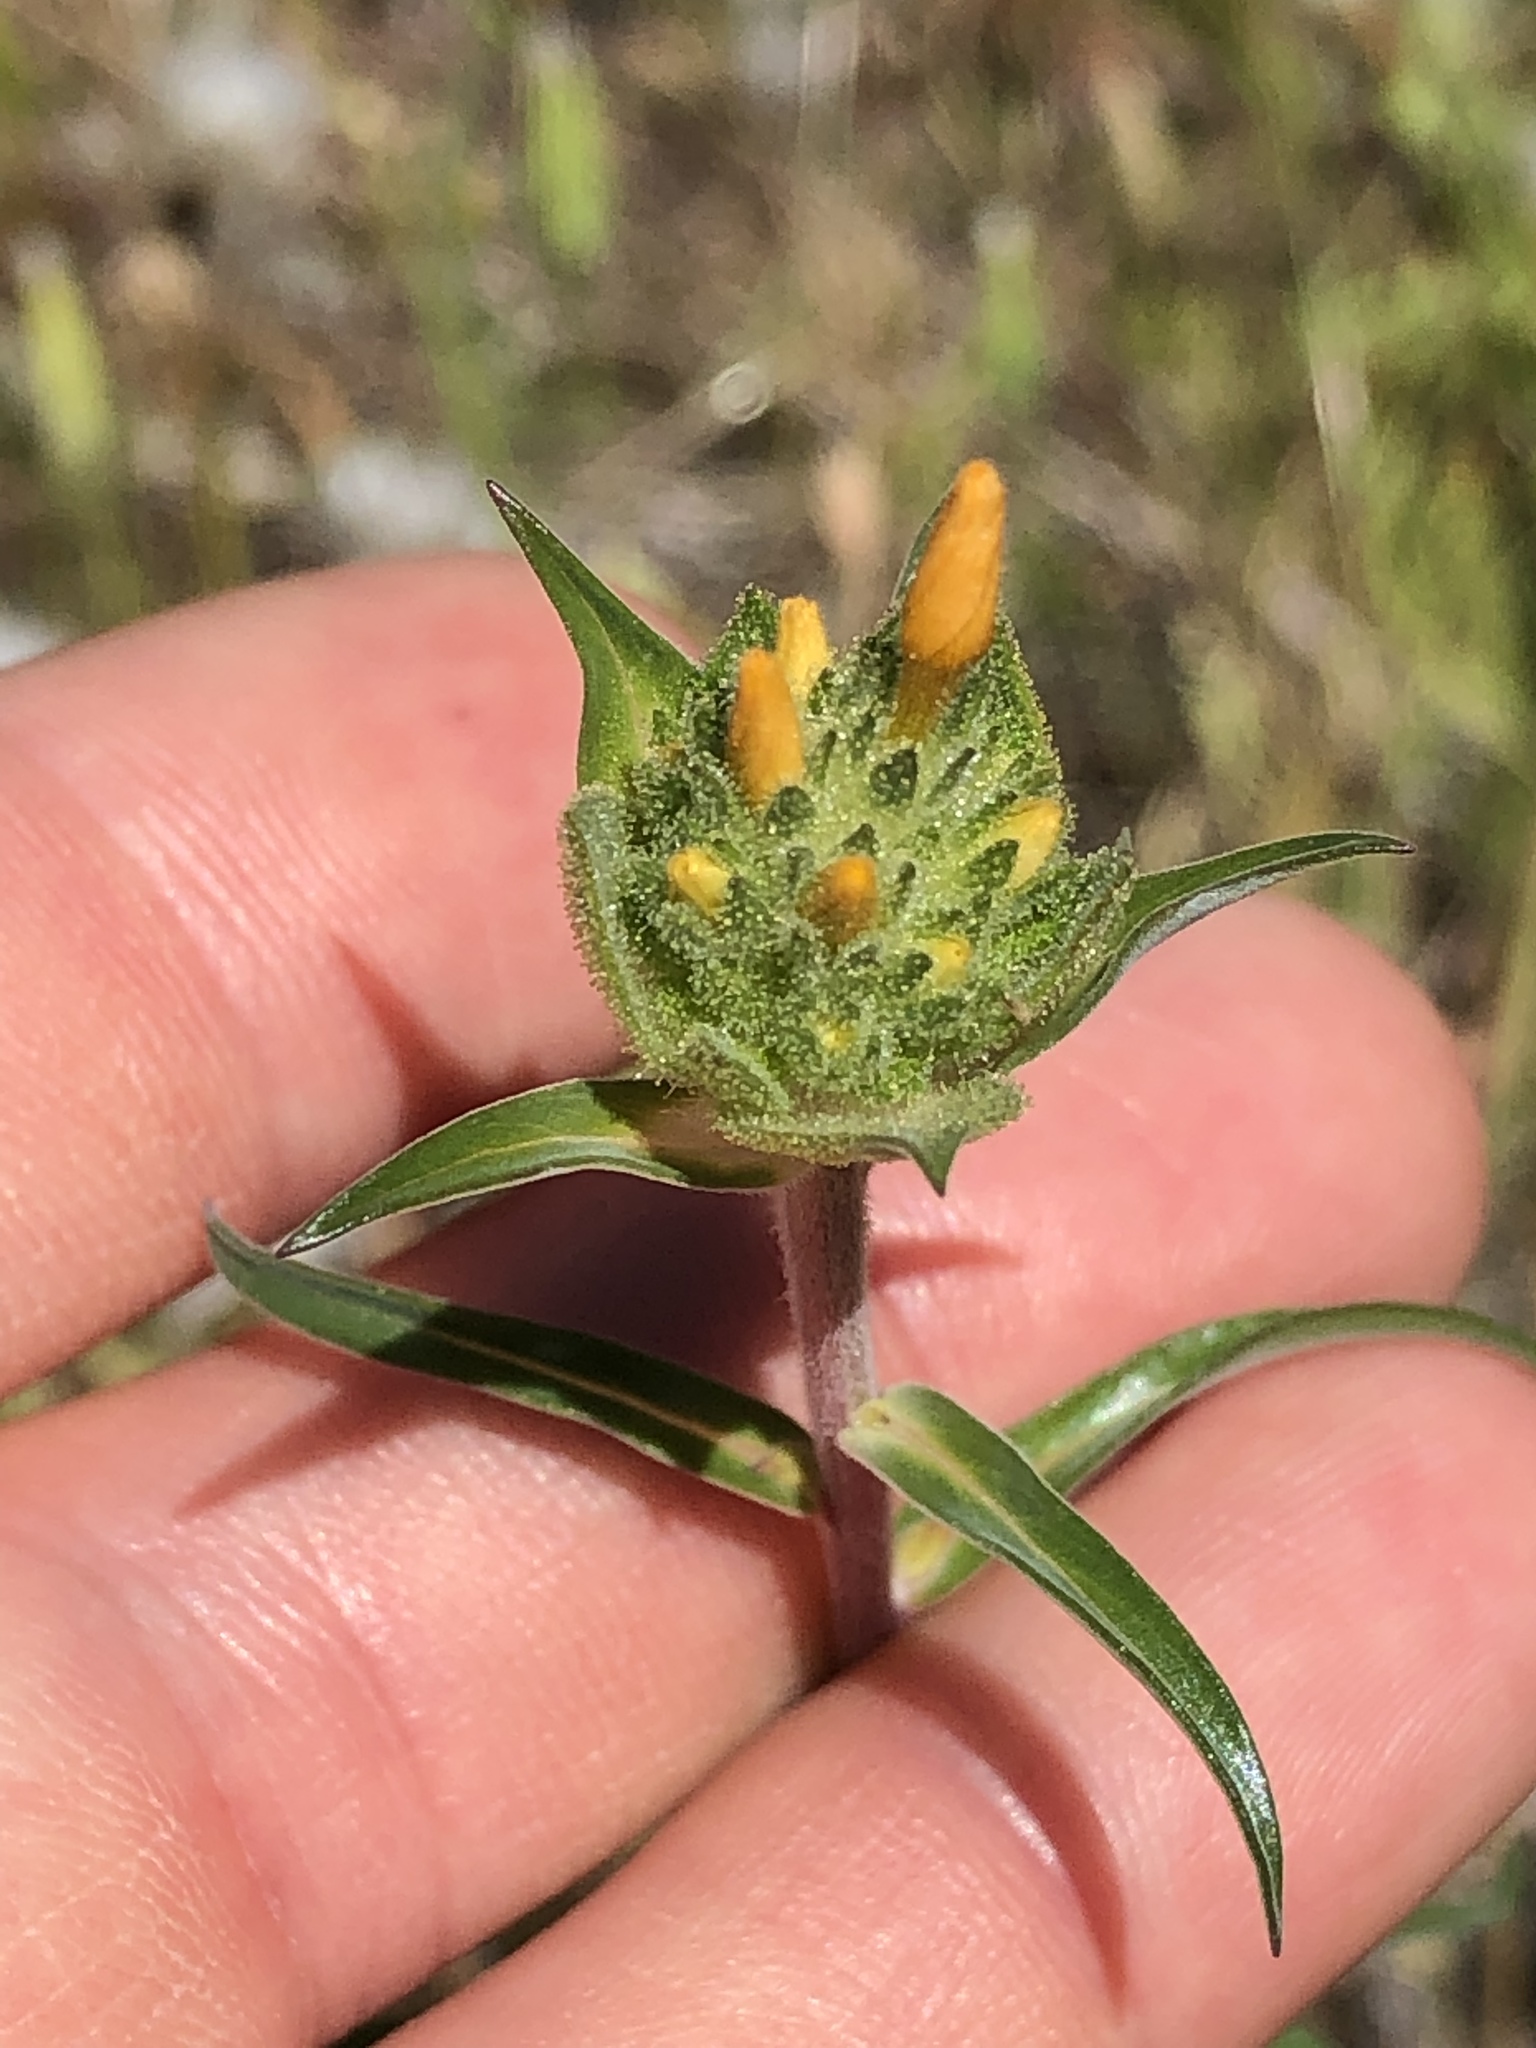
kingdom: Plantae
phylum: Tracheophyta
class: Magnoliopsida
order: Ericales
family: Polemoniaceae
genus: Collomia
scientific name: Collomia grandiflora
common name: California strawflower
